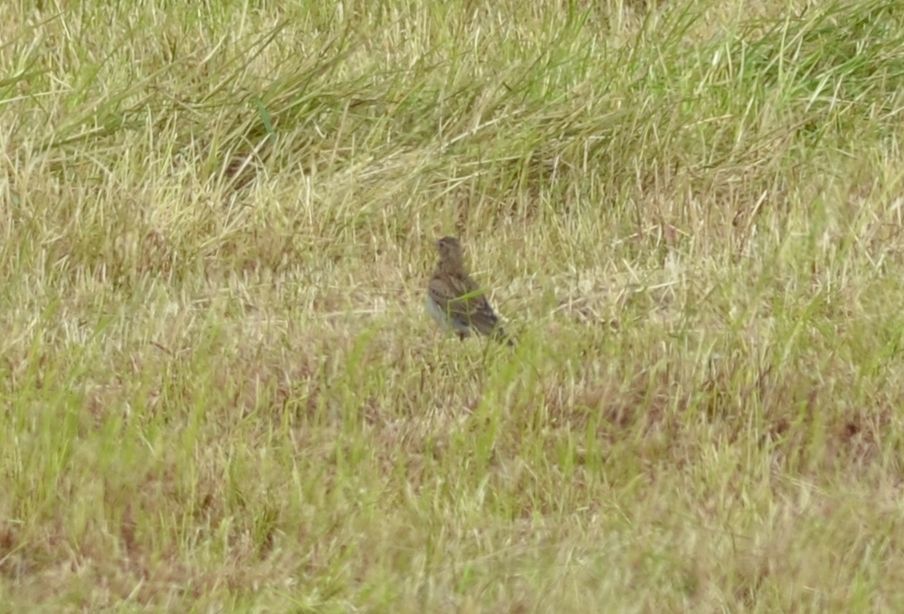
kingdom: Animalia
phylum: Chordata
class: Aves
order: Passeriformes
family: Alaudidae
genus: Alauda
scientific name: Alauda arvensis
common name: Eurasian skylark
